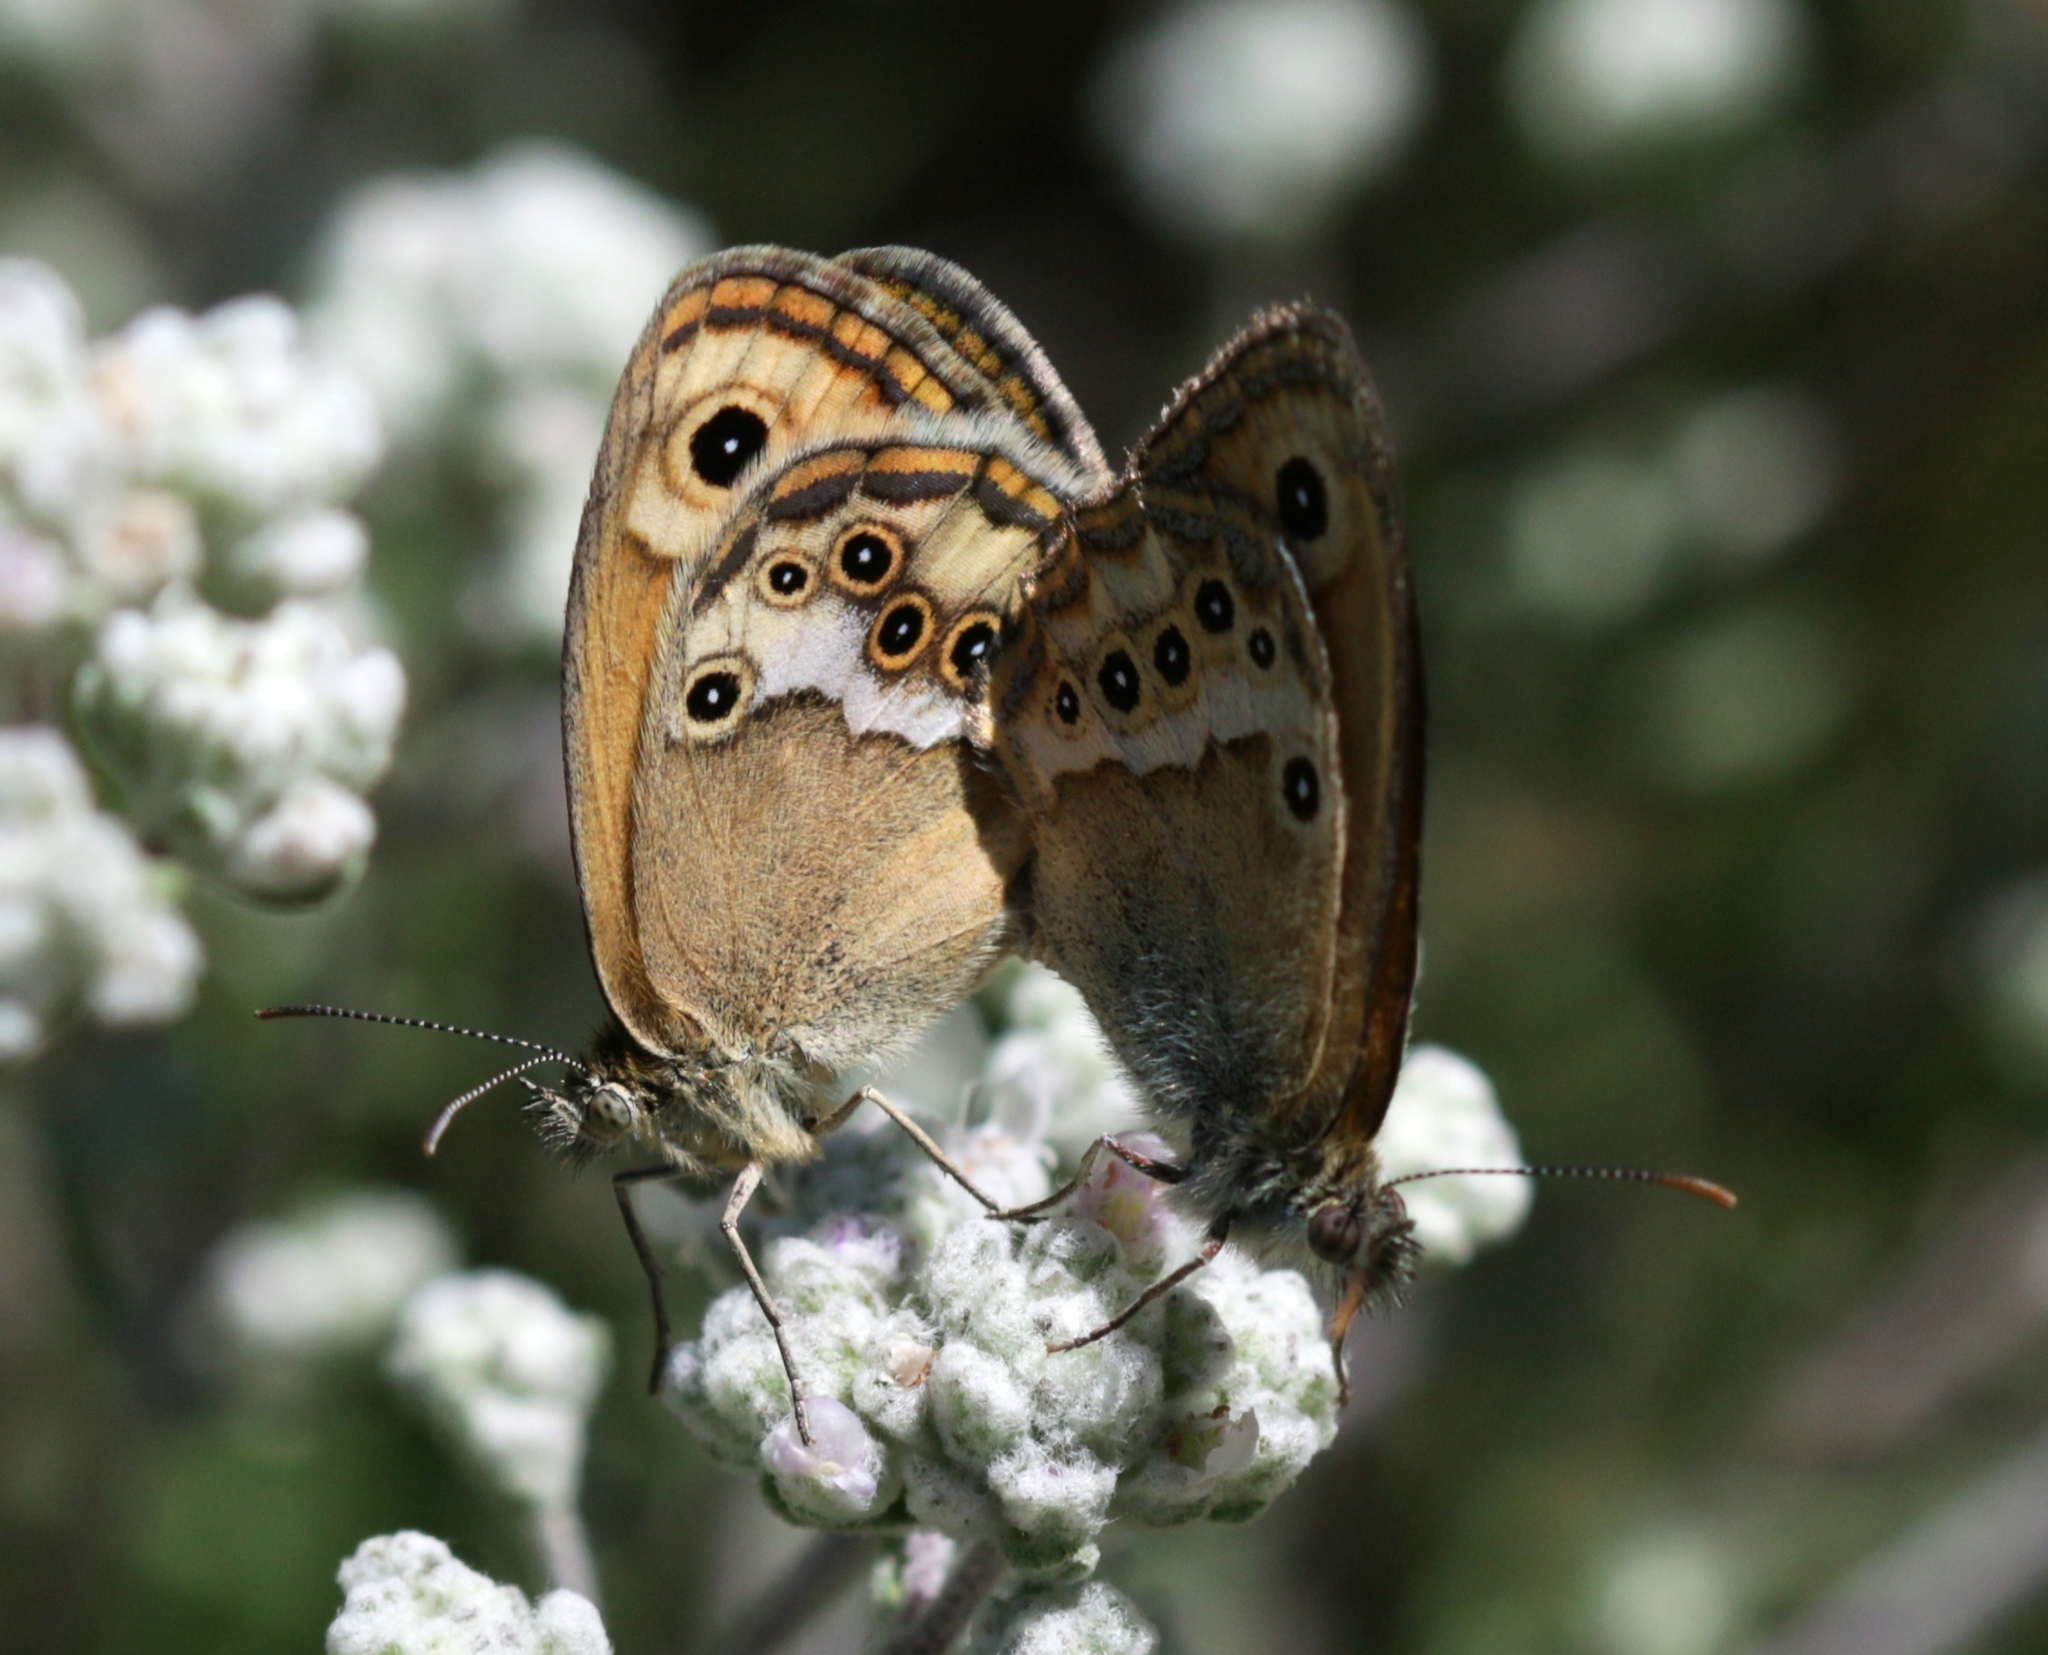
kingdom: Animalia
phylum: Arthropoda
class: Insecta
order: Lepidoptera
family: Nymphalidae
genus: Coenonympha
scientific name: Coenonympha dorus
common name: Dusky heath
